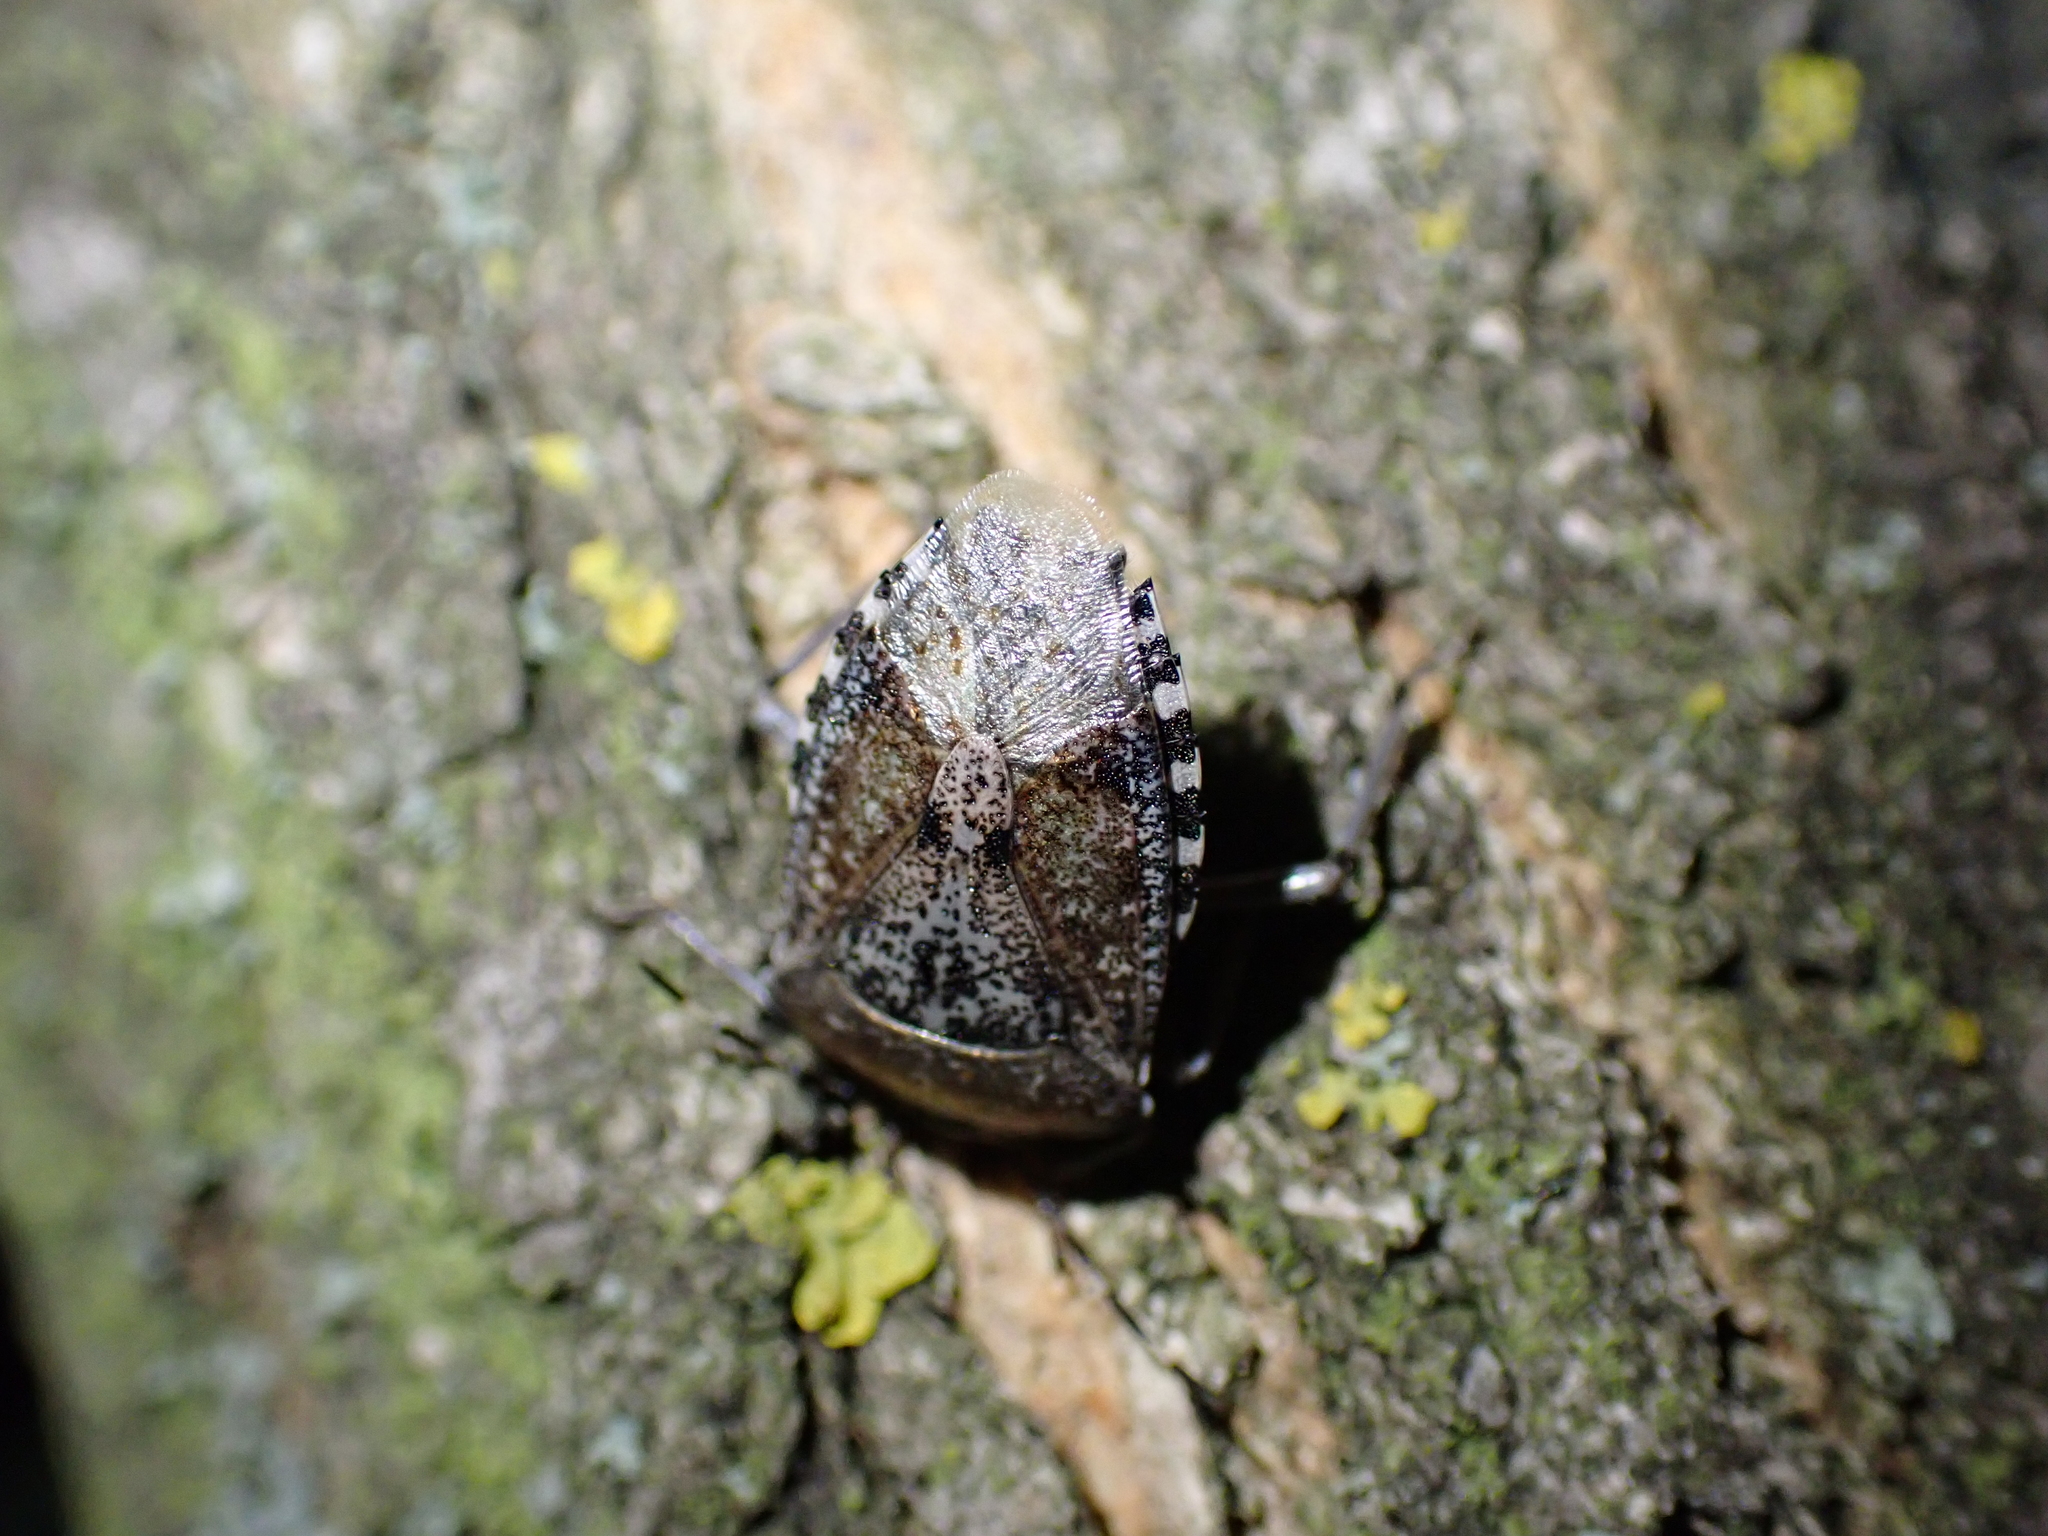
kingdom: Animalia
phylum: Arthropoda
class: Insecta
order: Hemiptera
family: Pentatomidae
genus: Rhaphigaster
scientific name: Rhaphigaster nebulosa
